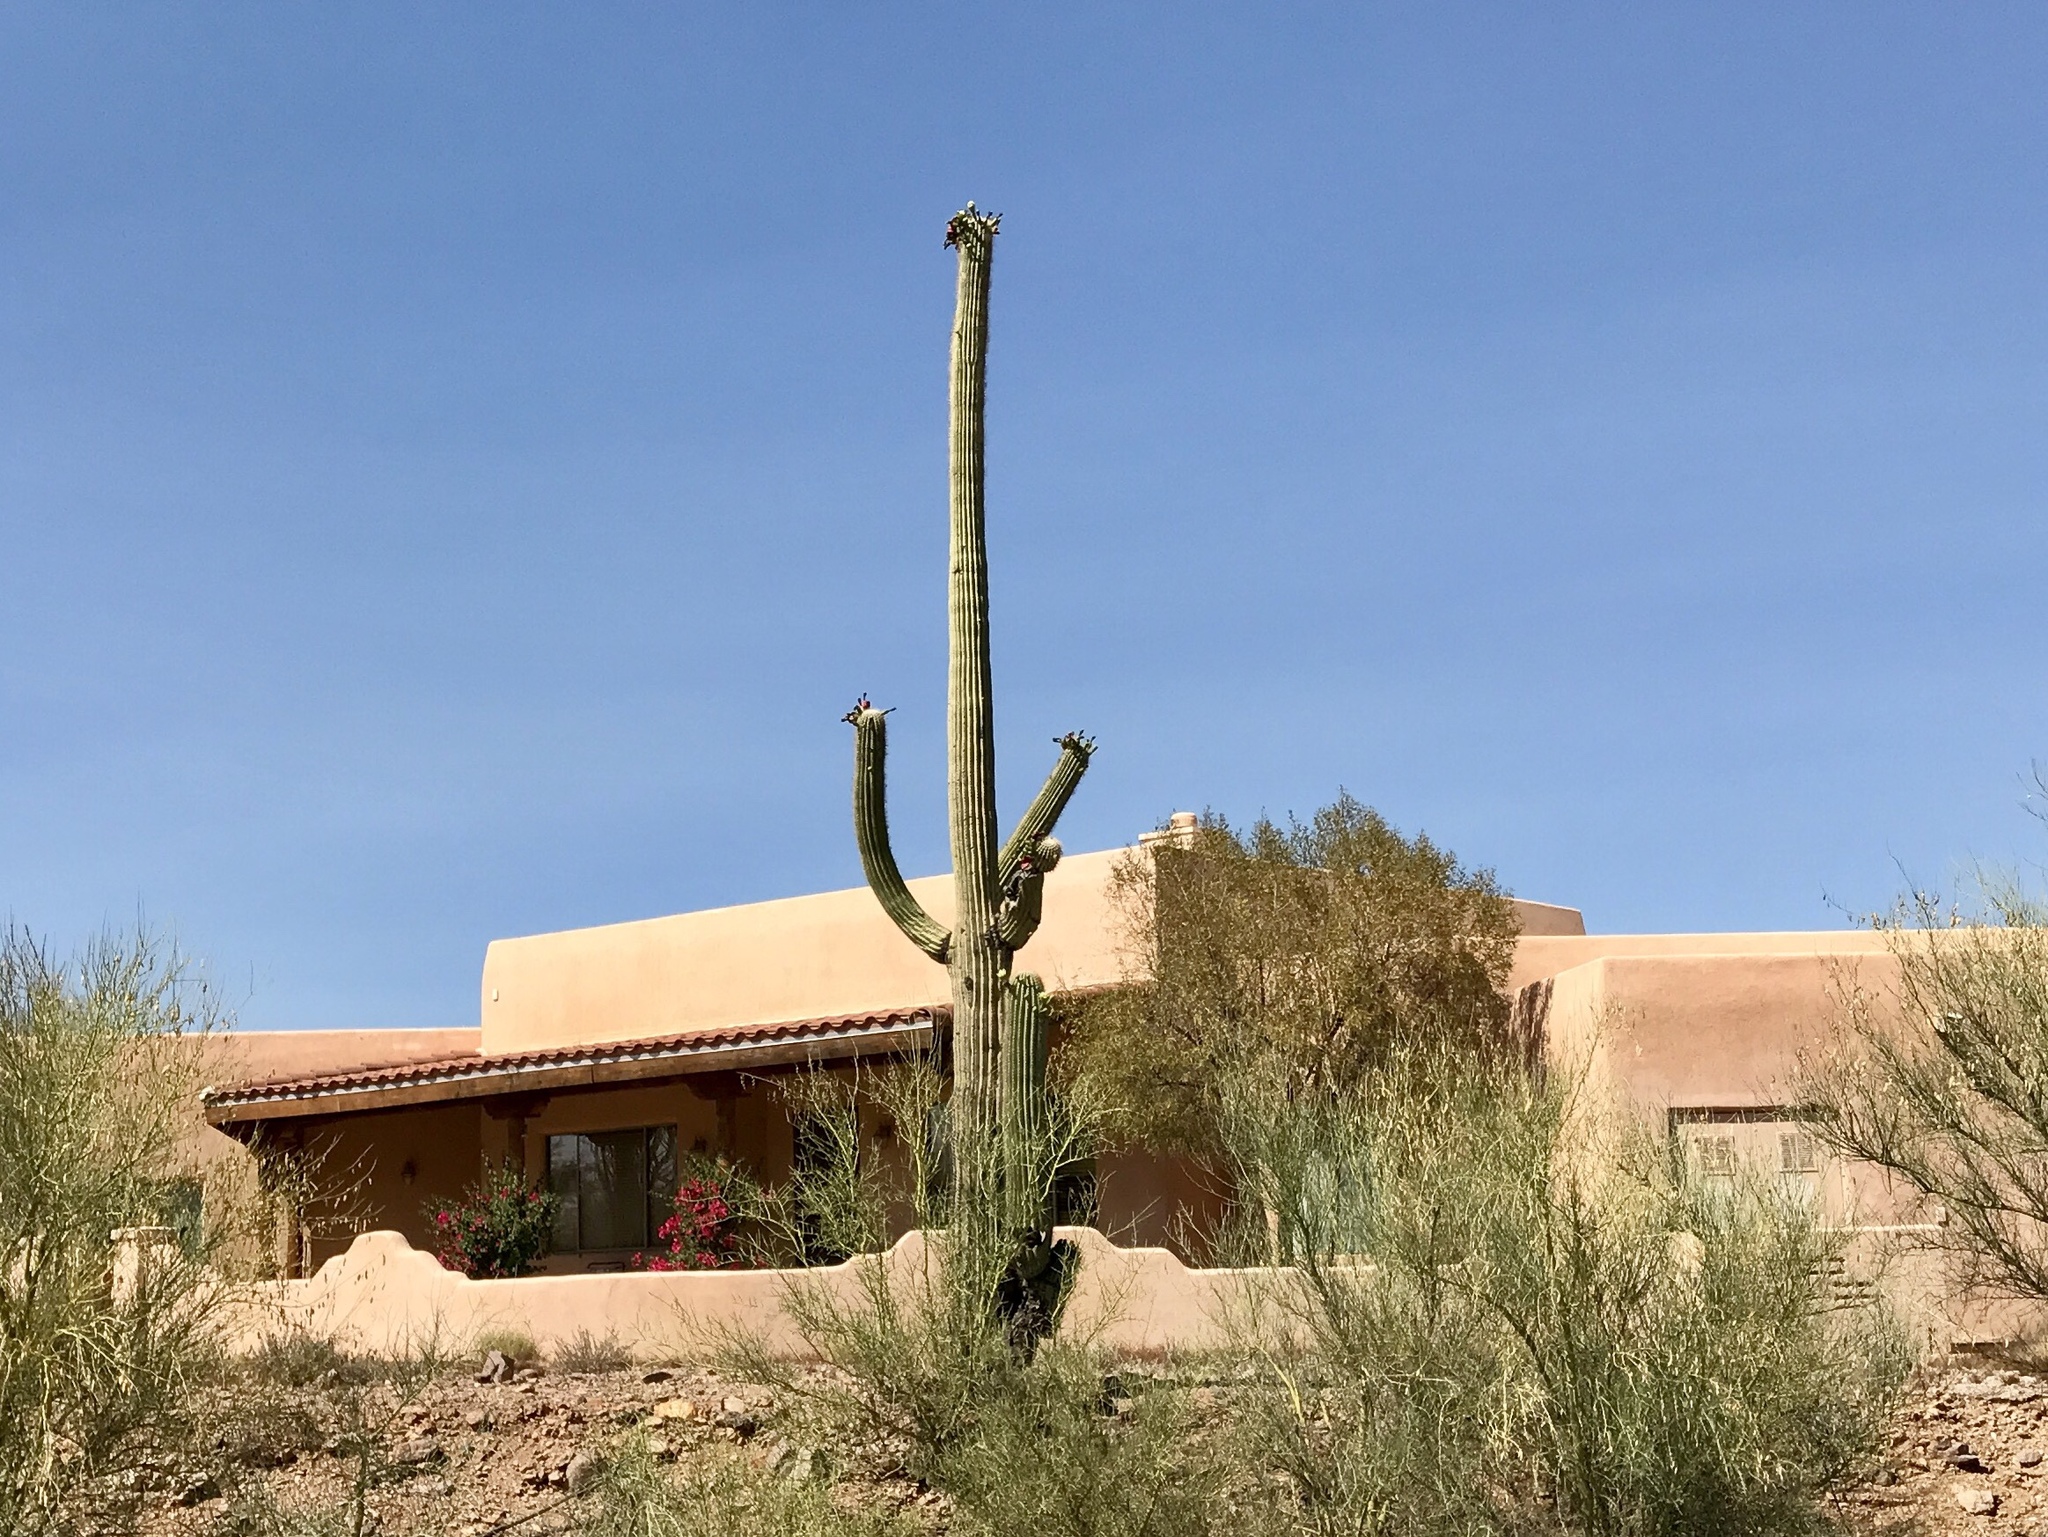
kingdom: Plantae
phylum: Tracheophyta
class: Magnoliopsida
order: Caryophyllales
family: Cactaceae
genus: Carnegiea
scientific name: Carnegiea gigantea
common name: Saguaro
